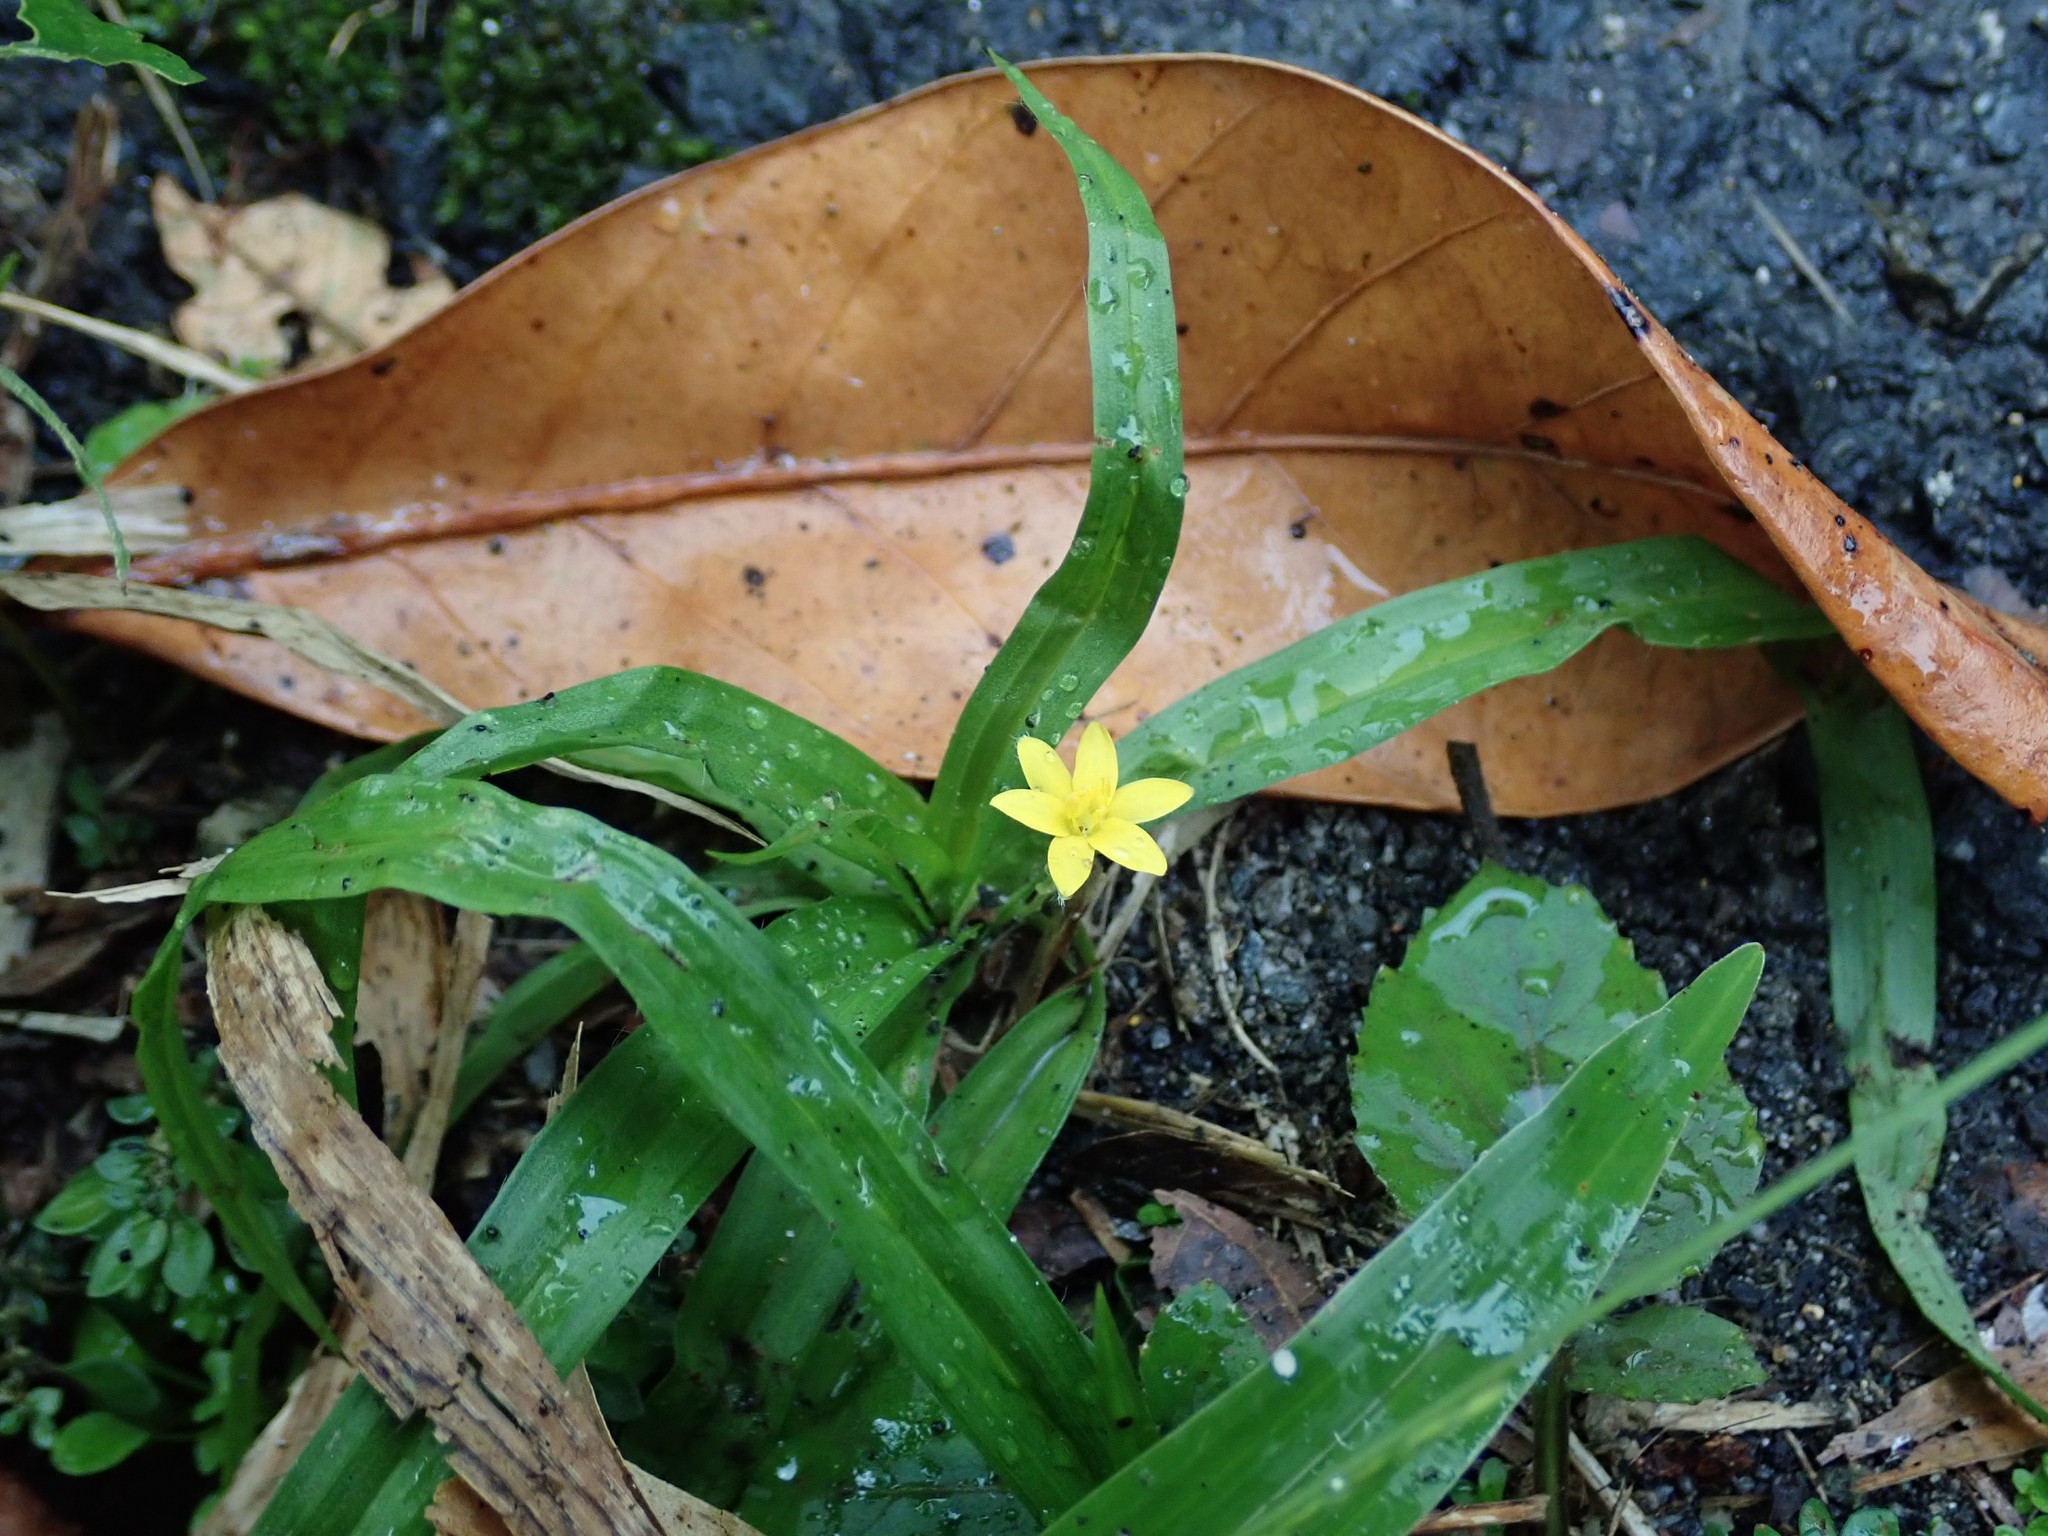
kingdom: Plantae
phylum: Tracheophyta
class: Liliopsida
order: Asparagales
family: Hypoxidaceae
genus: Hypoxis
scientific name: Hypoxis decumbens
